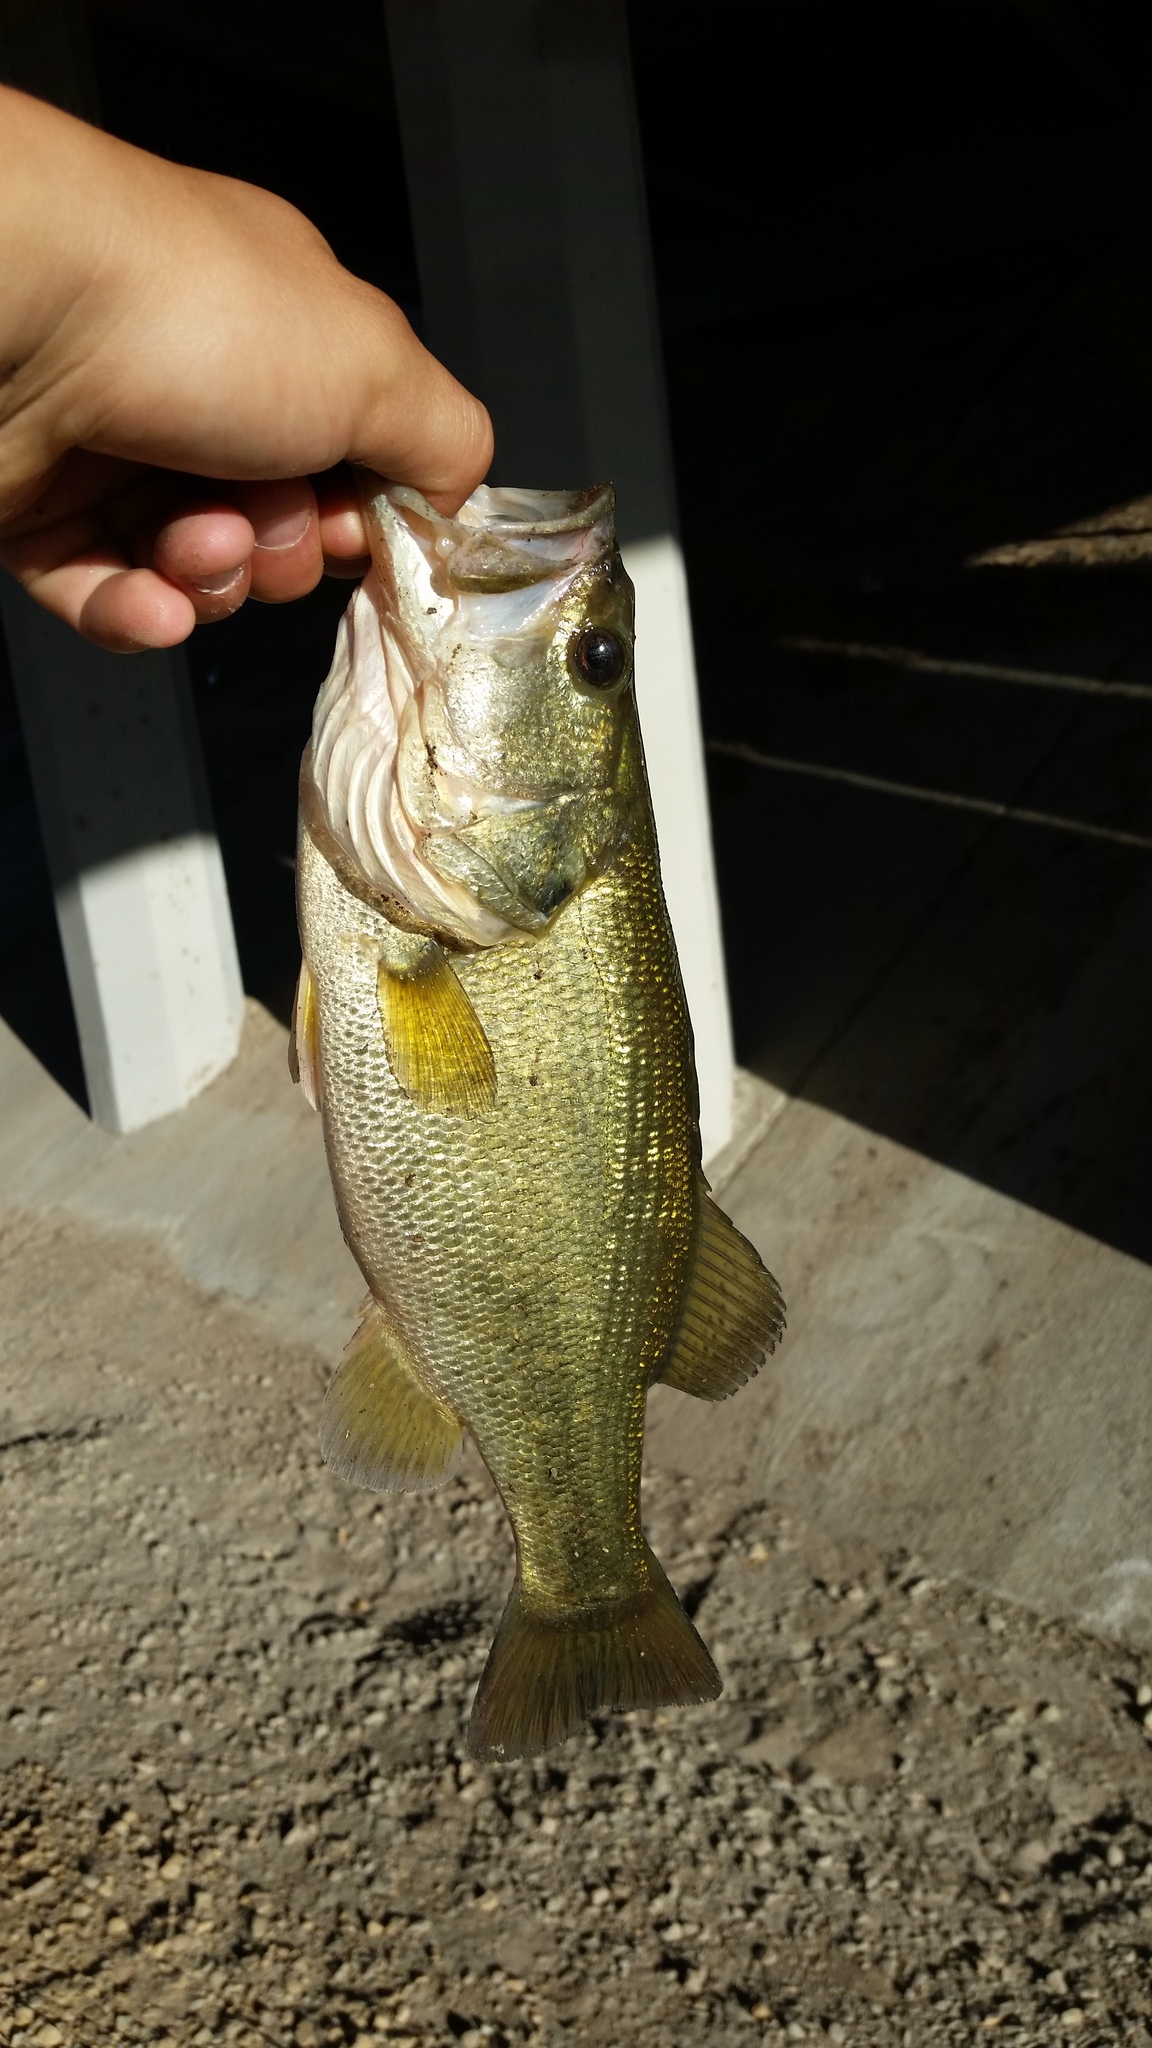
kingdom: Animalia
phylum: Chordata
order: Perciformes
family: Centrarchidae
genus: Micropterus
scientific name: Micropterus
